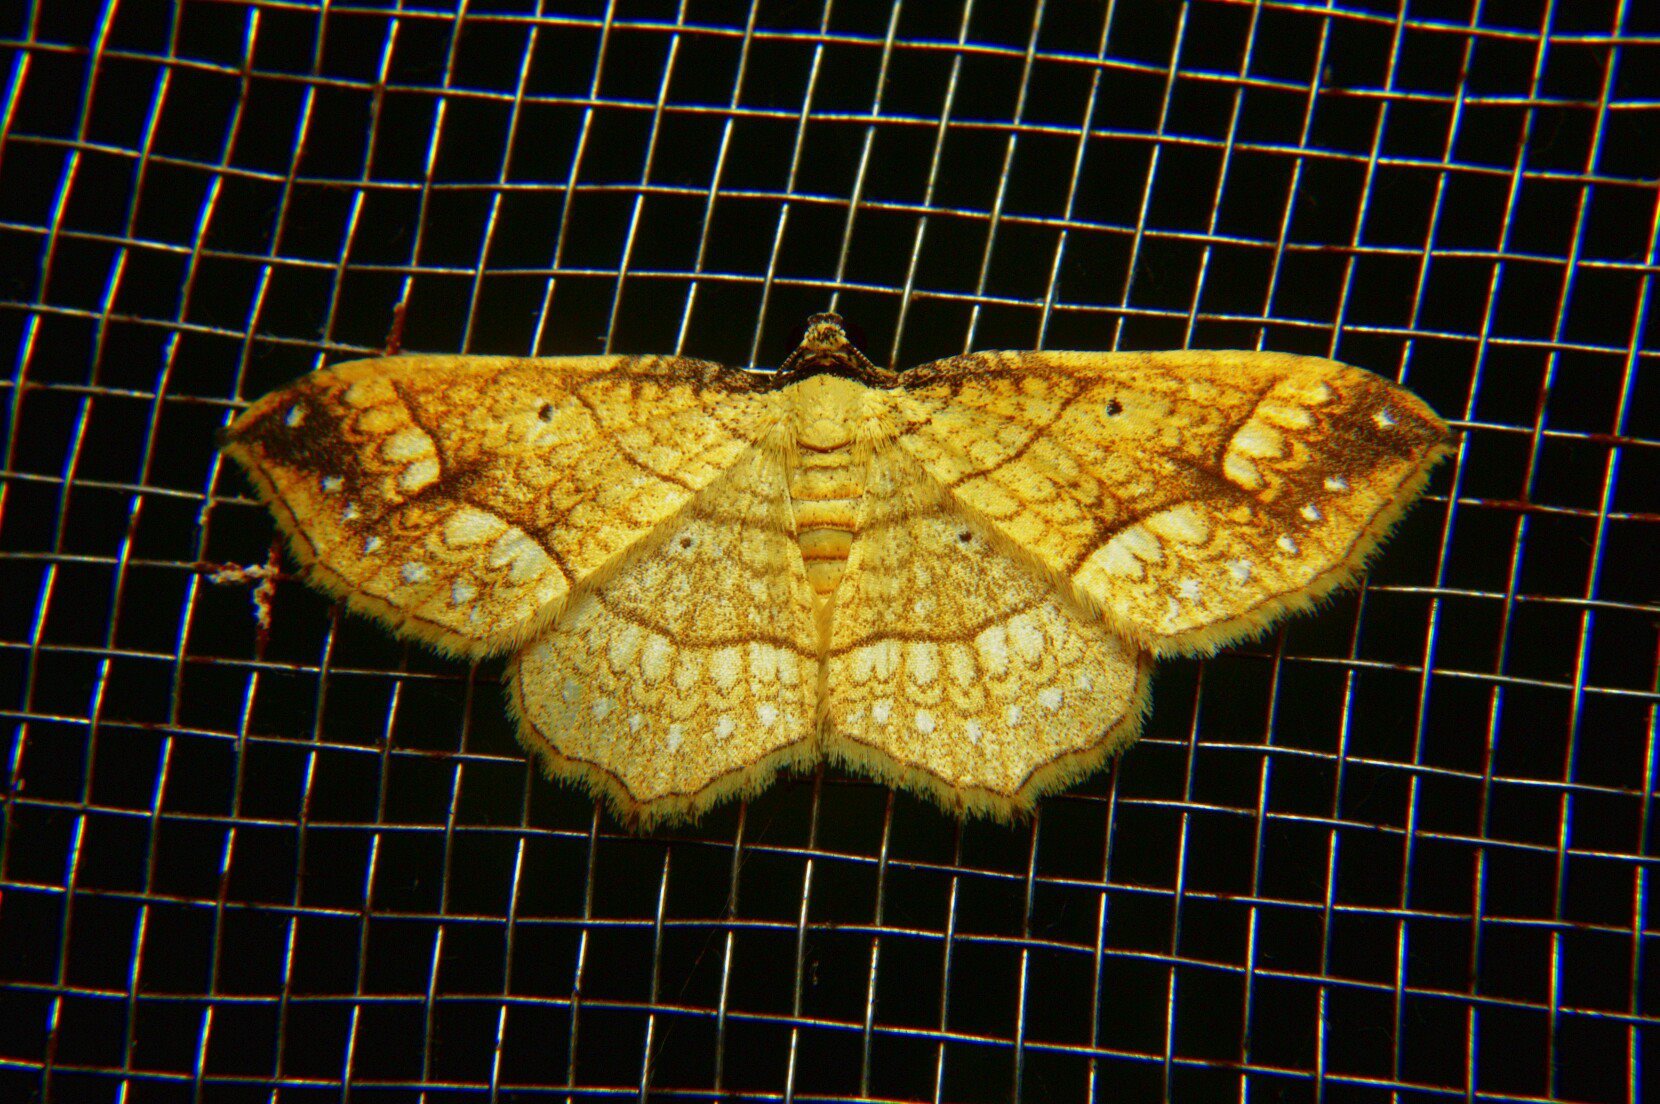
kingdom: Animalia
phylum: Arthropoda
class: Insecta
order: Lepidoptera
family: Geometridae
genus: Laciniodes
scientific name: Laciniodes plurilinearia
